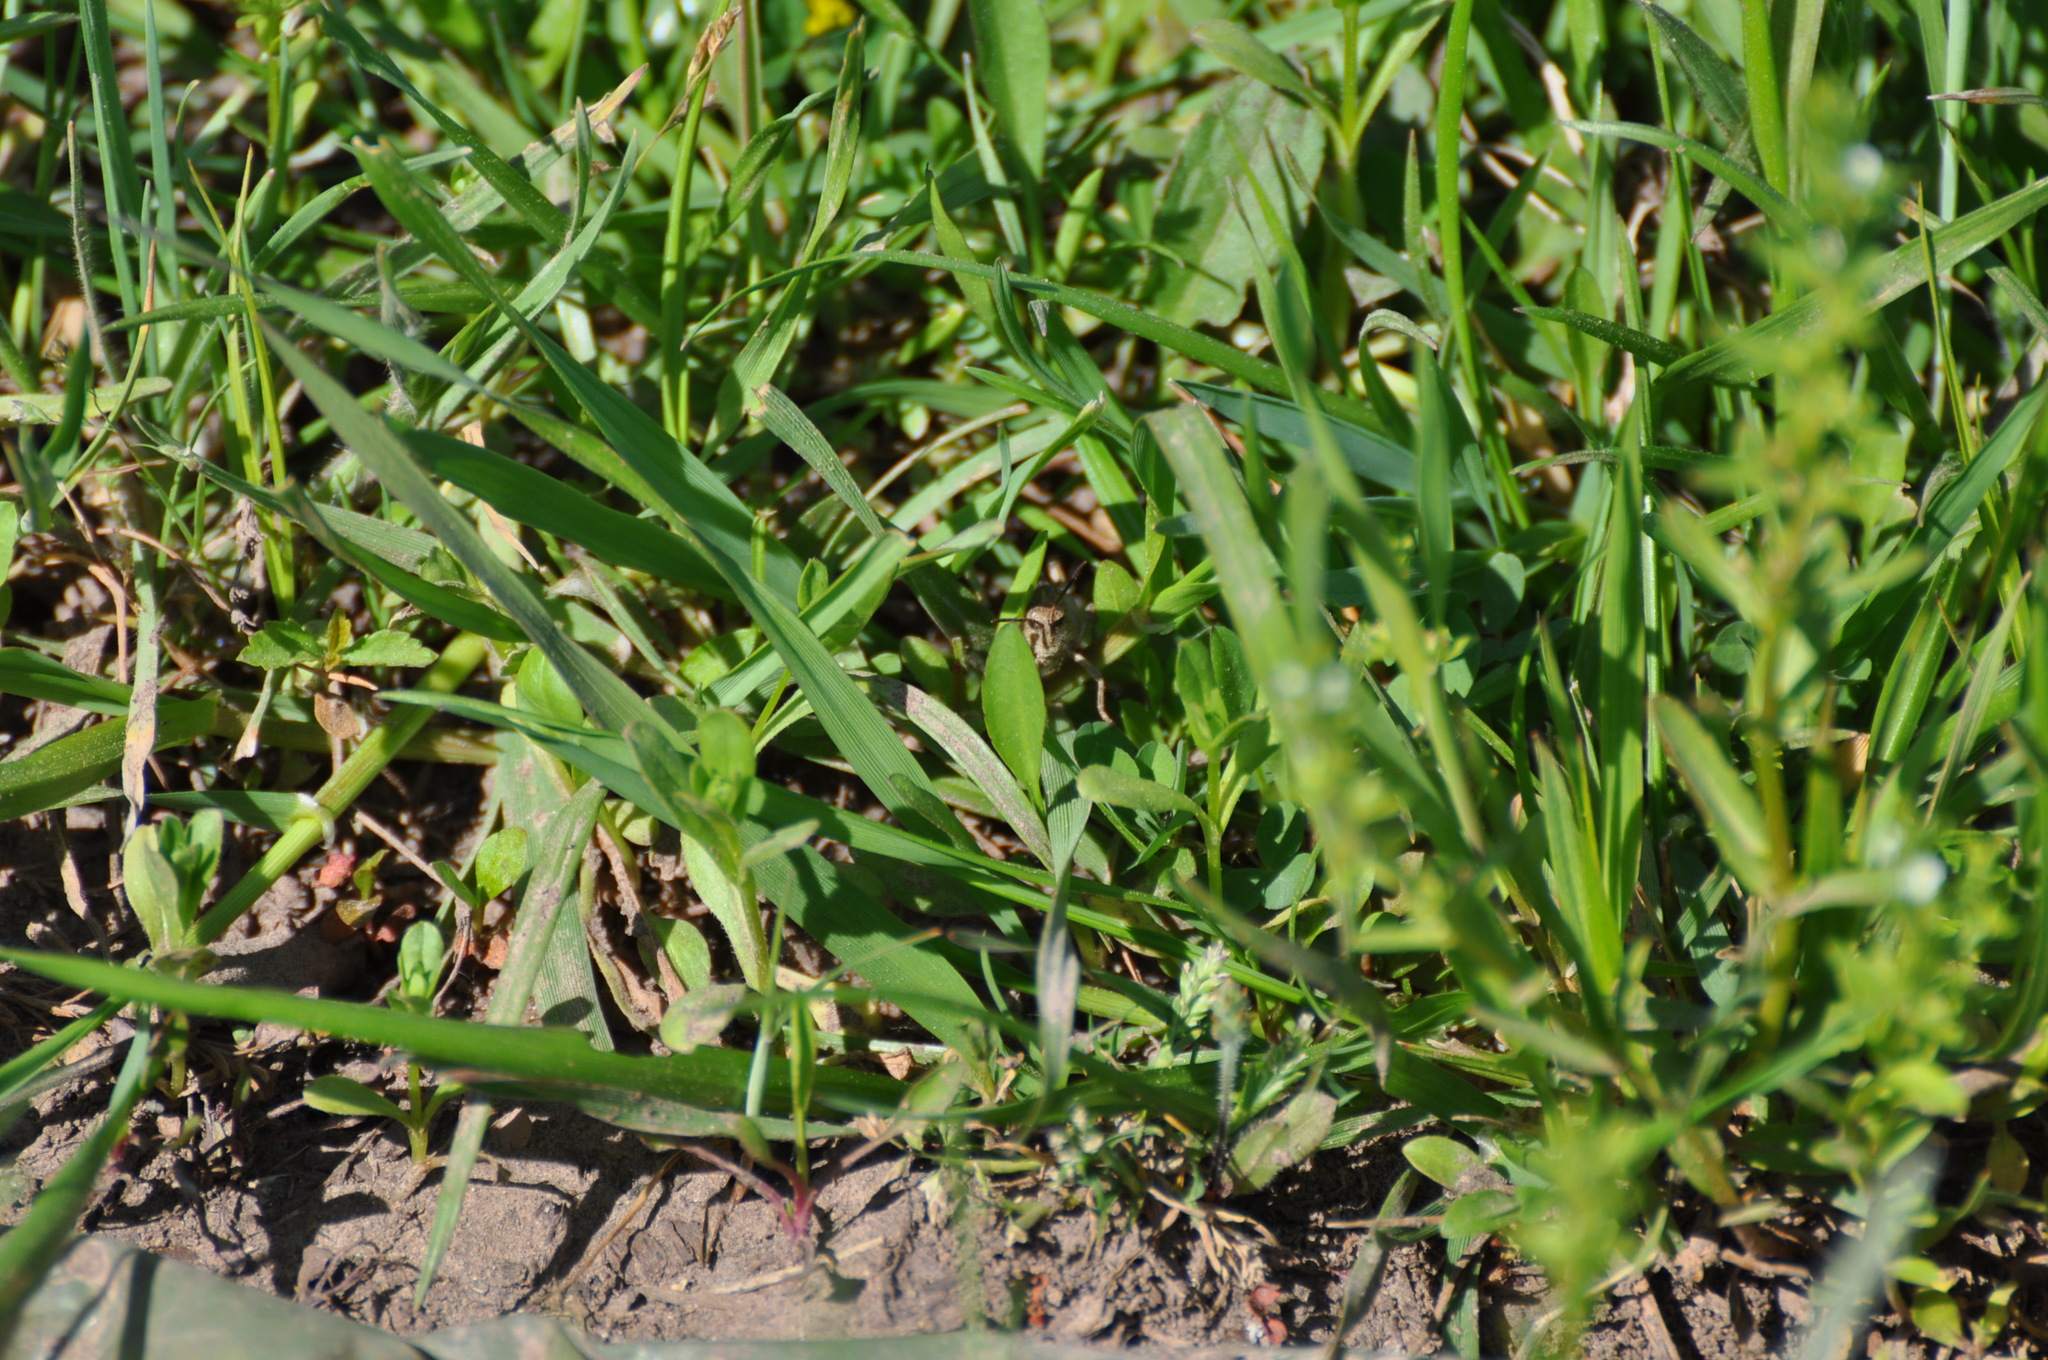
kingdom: Animalia
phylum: Arthropoda
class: Insecta
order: Orthoptera
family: Acrididae
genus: Chortophaga
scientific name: Chortophaga viridifasciata
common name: Green-striped grasshopper
